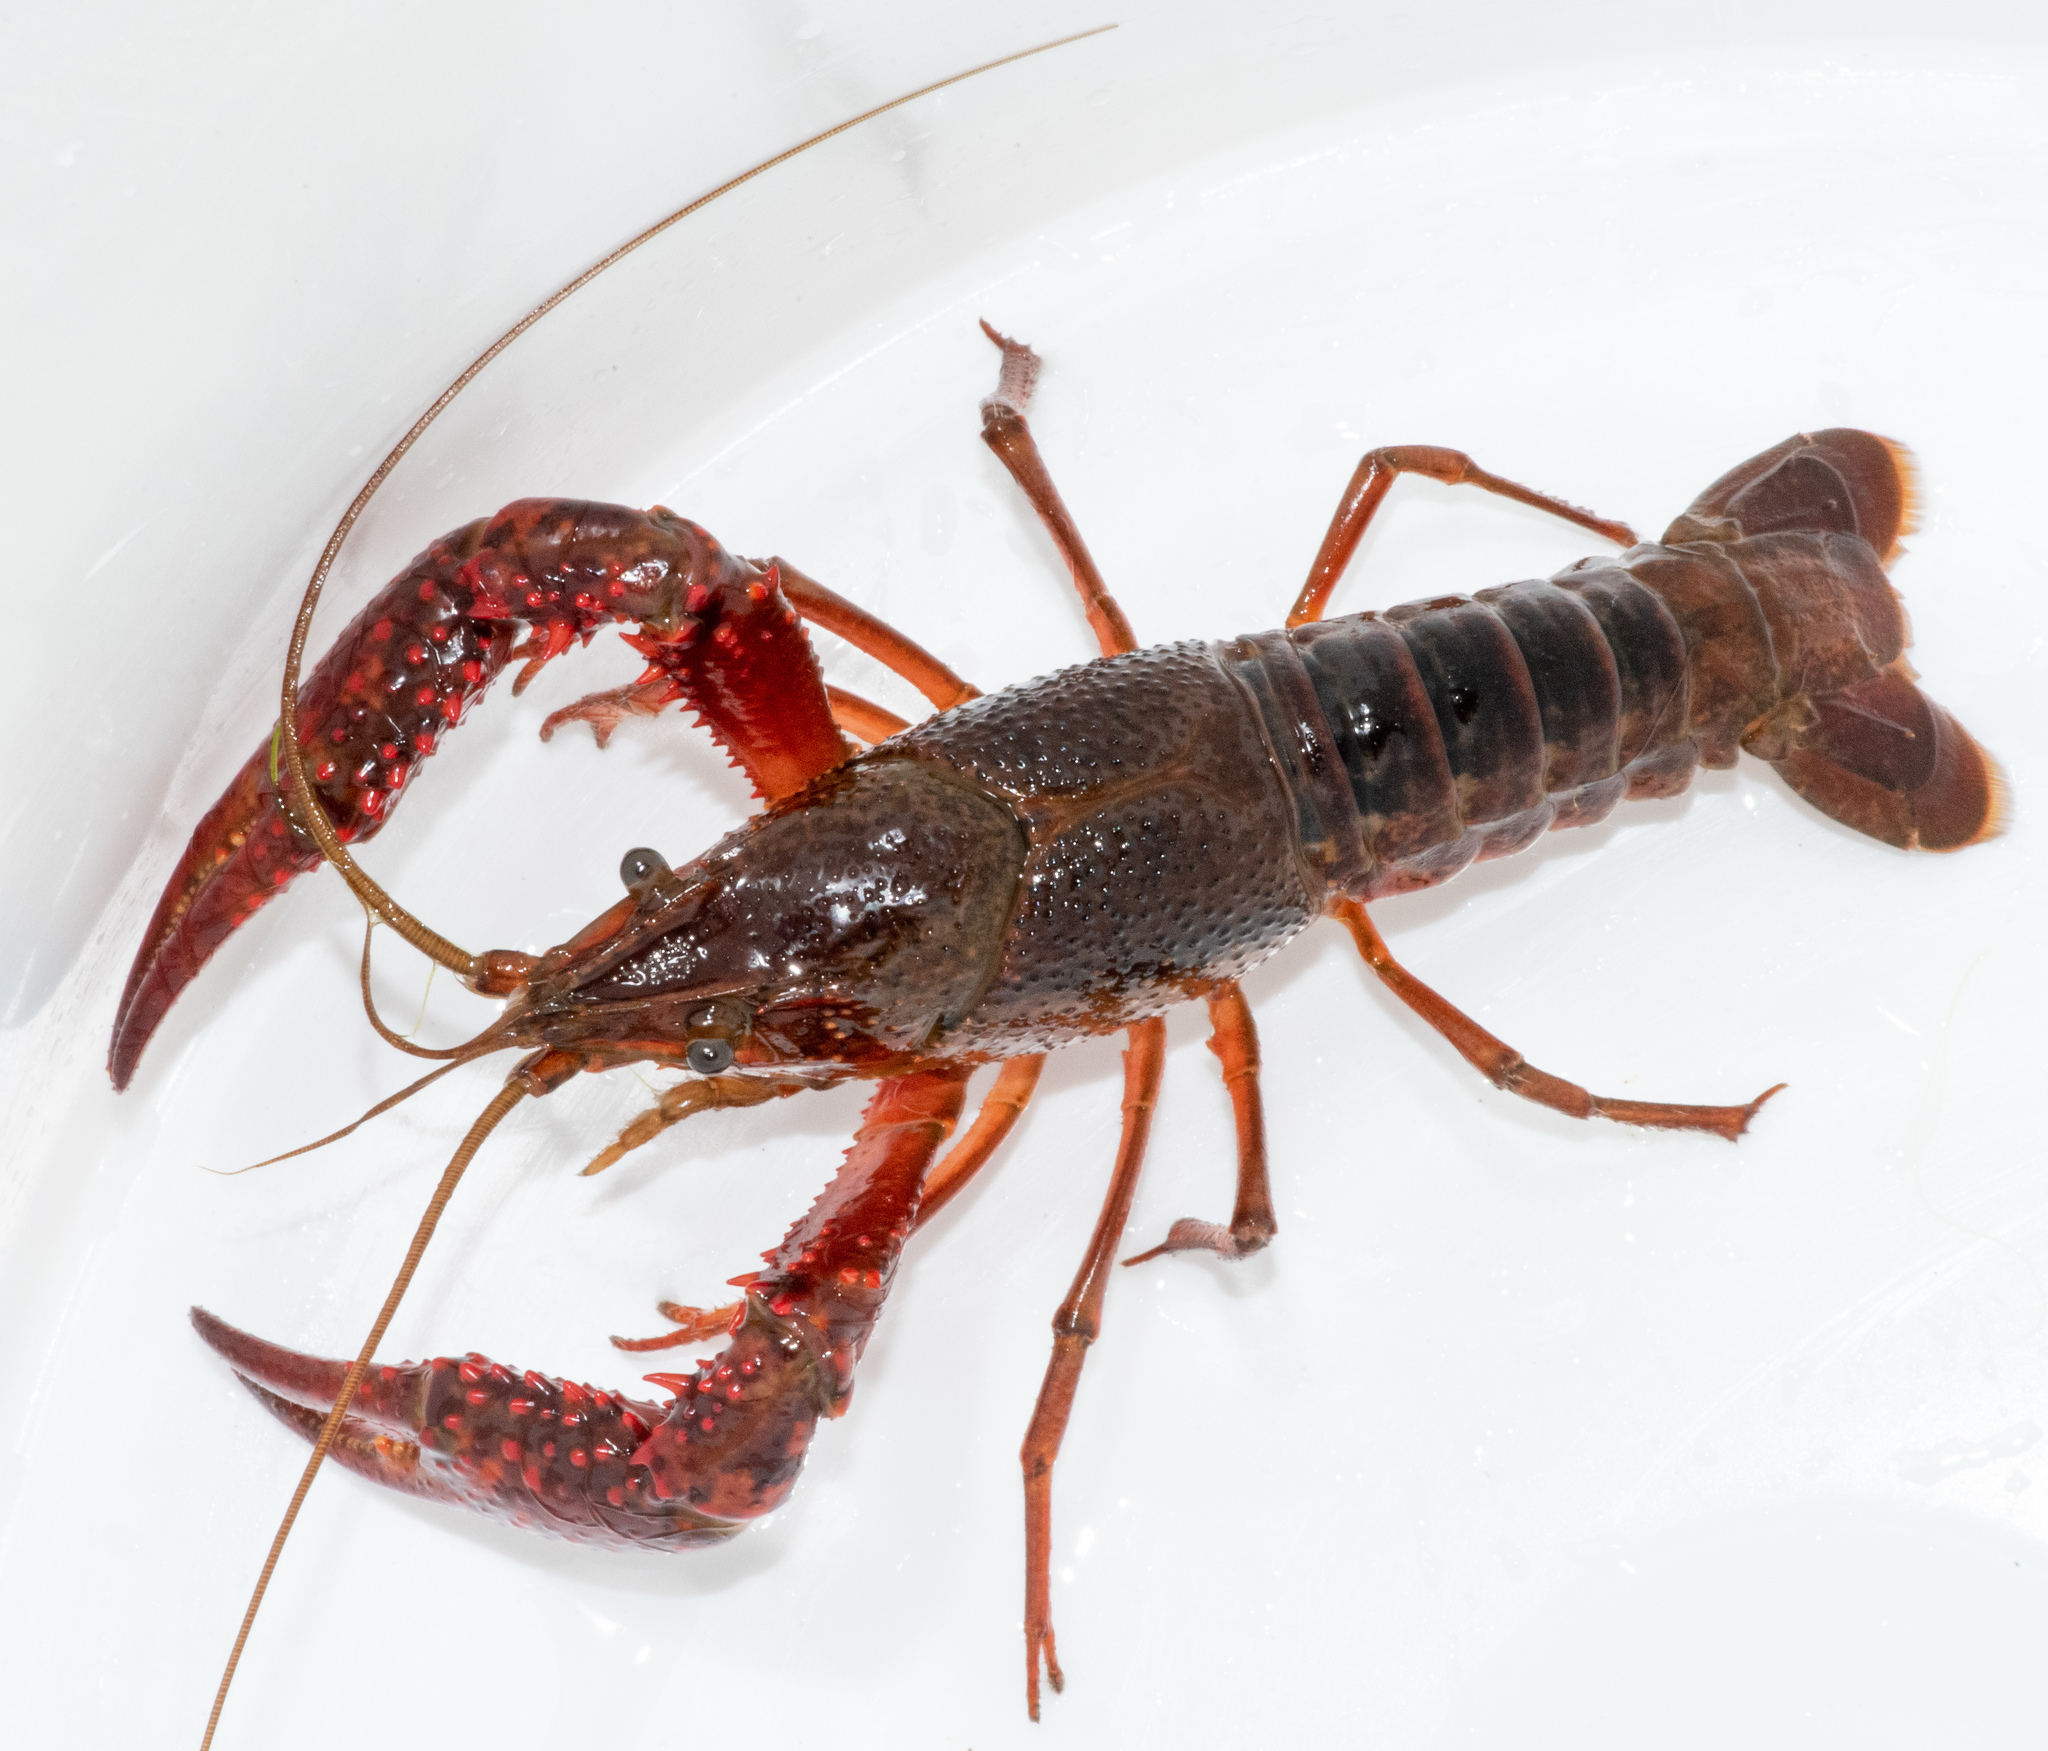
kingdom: Animalia
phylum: Arthropoda
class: Malacostraca
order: Decapoda
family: Cambaridae
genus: Procambarus
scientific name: Procambarus clarkii
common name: Red swamp crayfish
